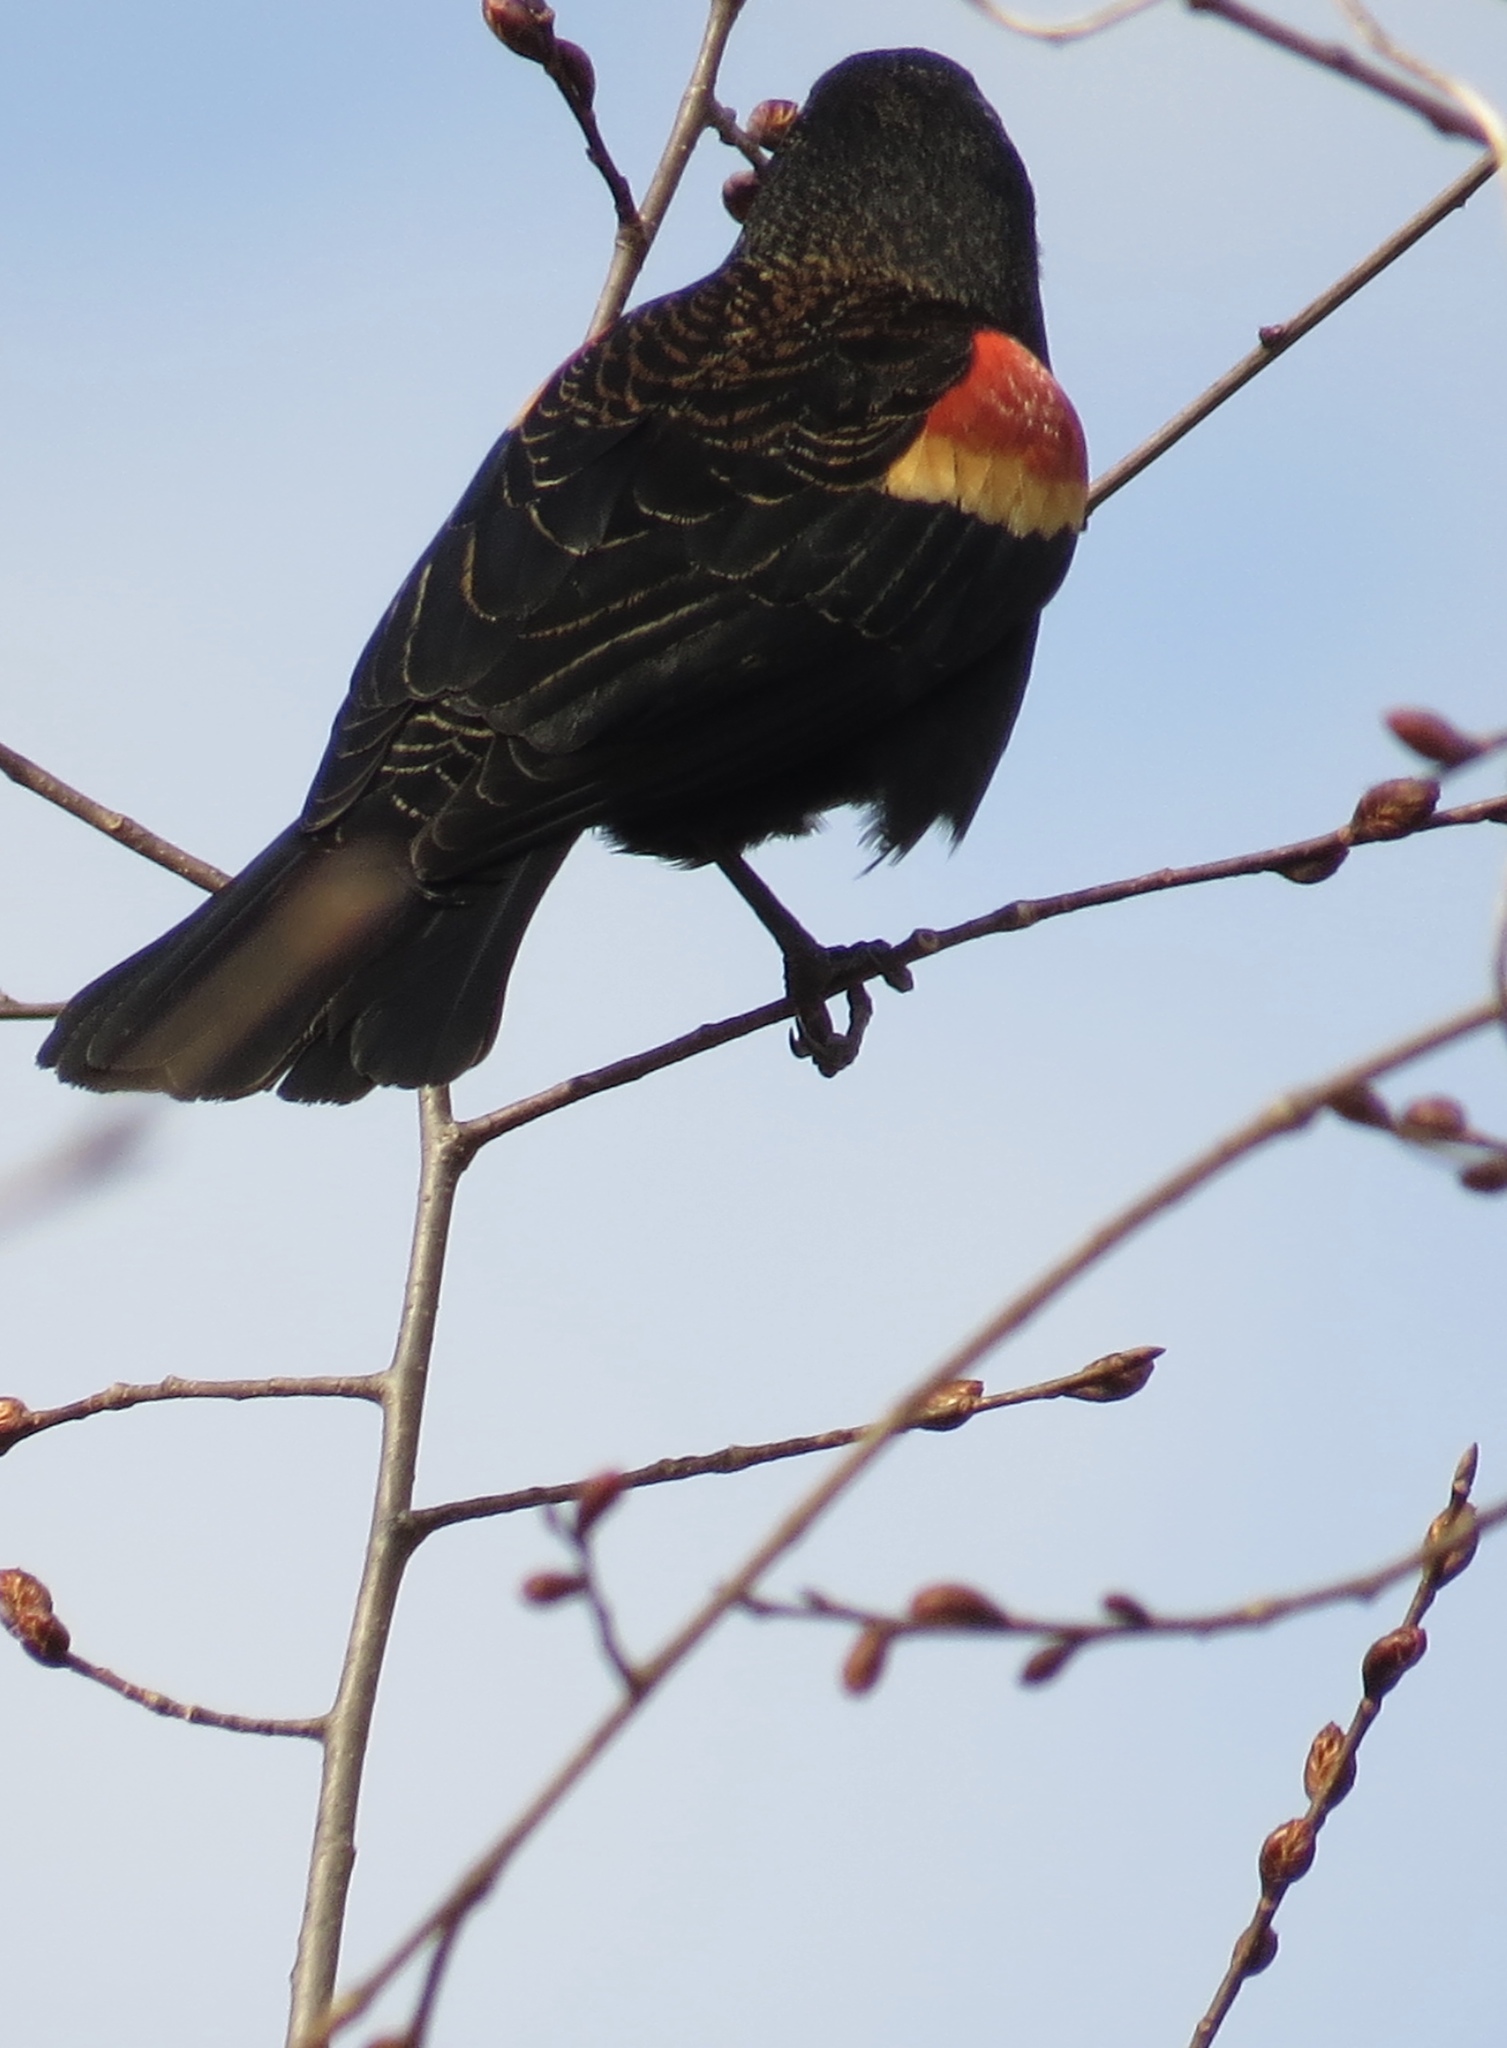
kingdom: Animalia
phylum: Chordata
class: Aves
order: Passeriformes
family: Icteridae
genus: Agelaius
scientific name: Agelaius phoeniceus
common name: Red-winged blackbird
